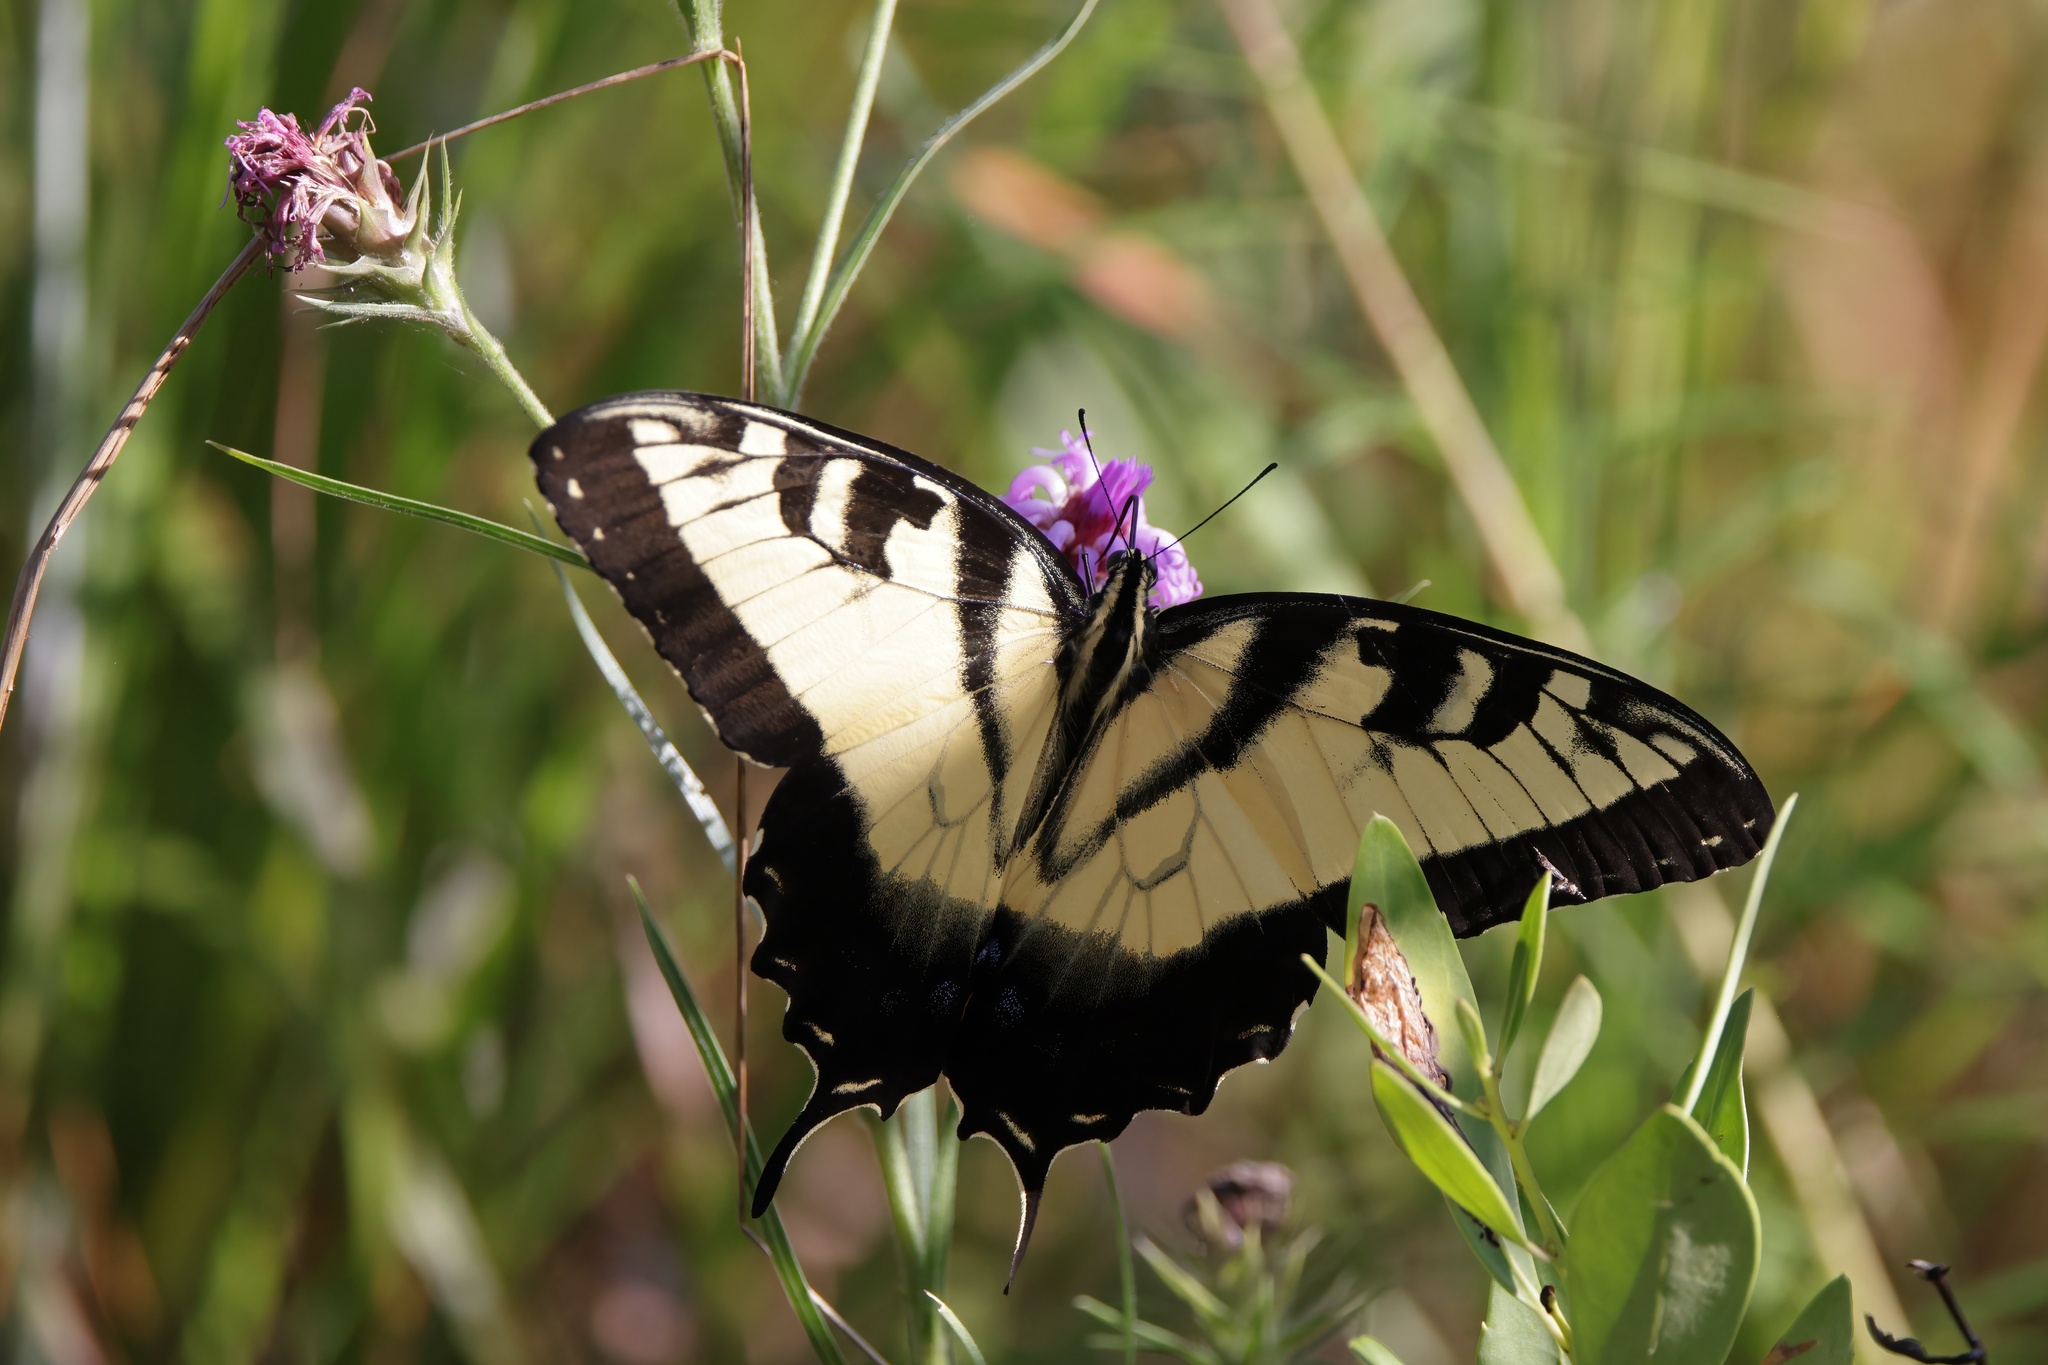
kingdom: Animalia
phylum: Arthropoda
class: Insecta
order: Lepidoptera
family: Papilionidae
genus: Papilio
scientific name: Papilio glaucus
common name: Tiger swallowtail
